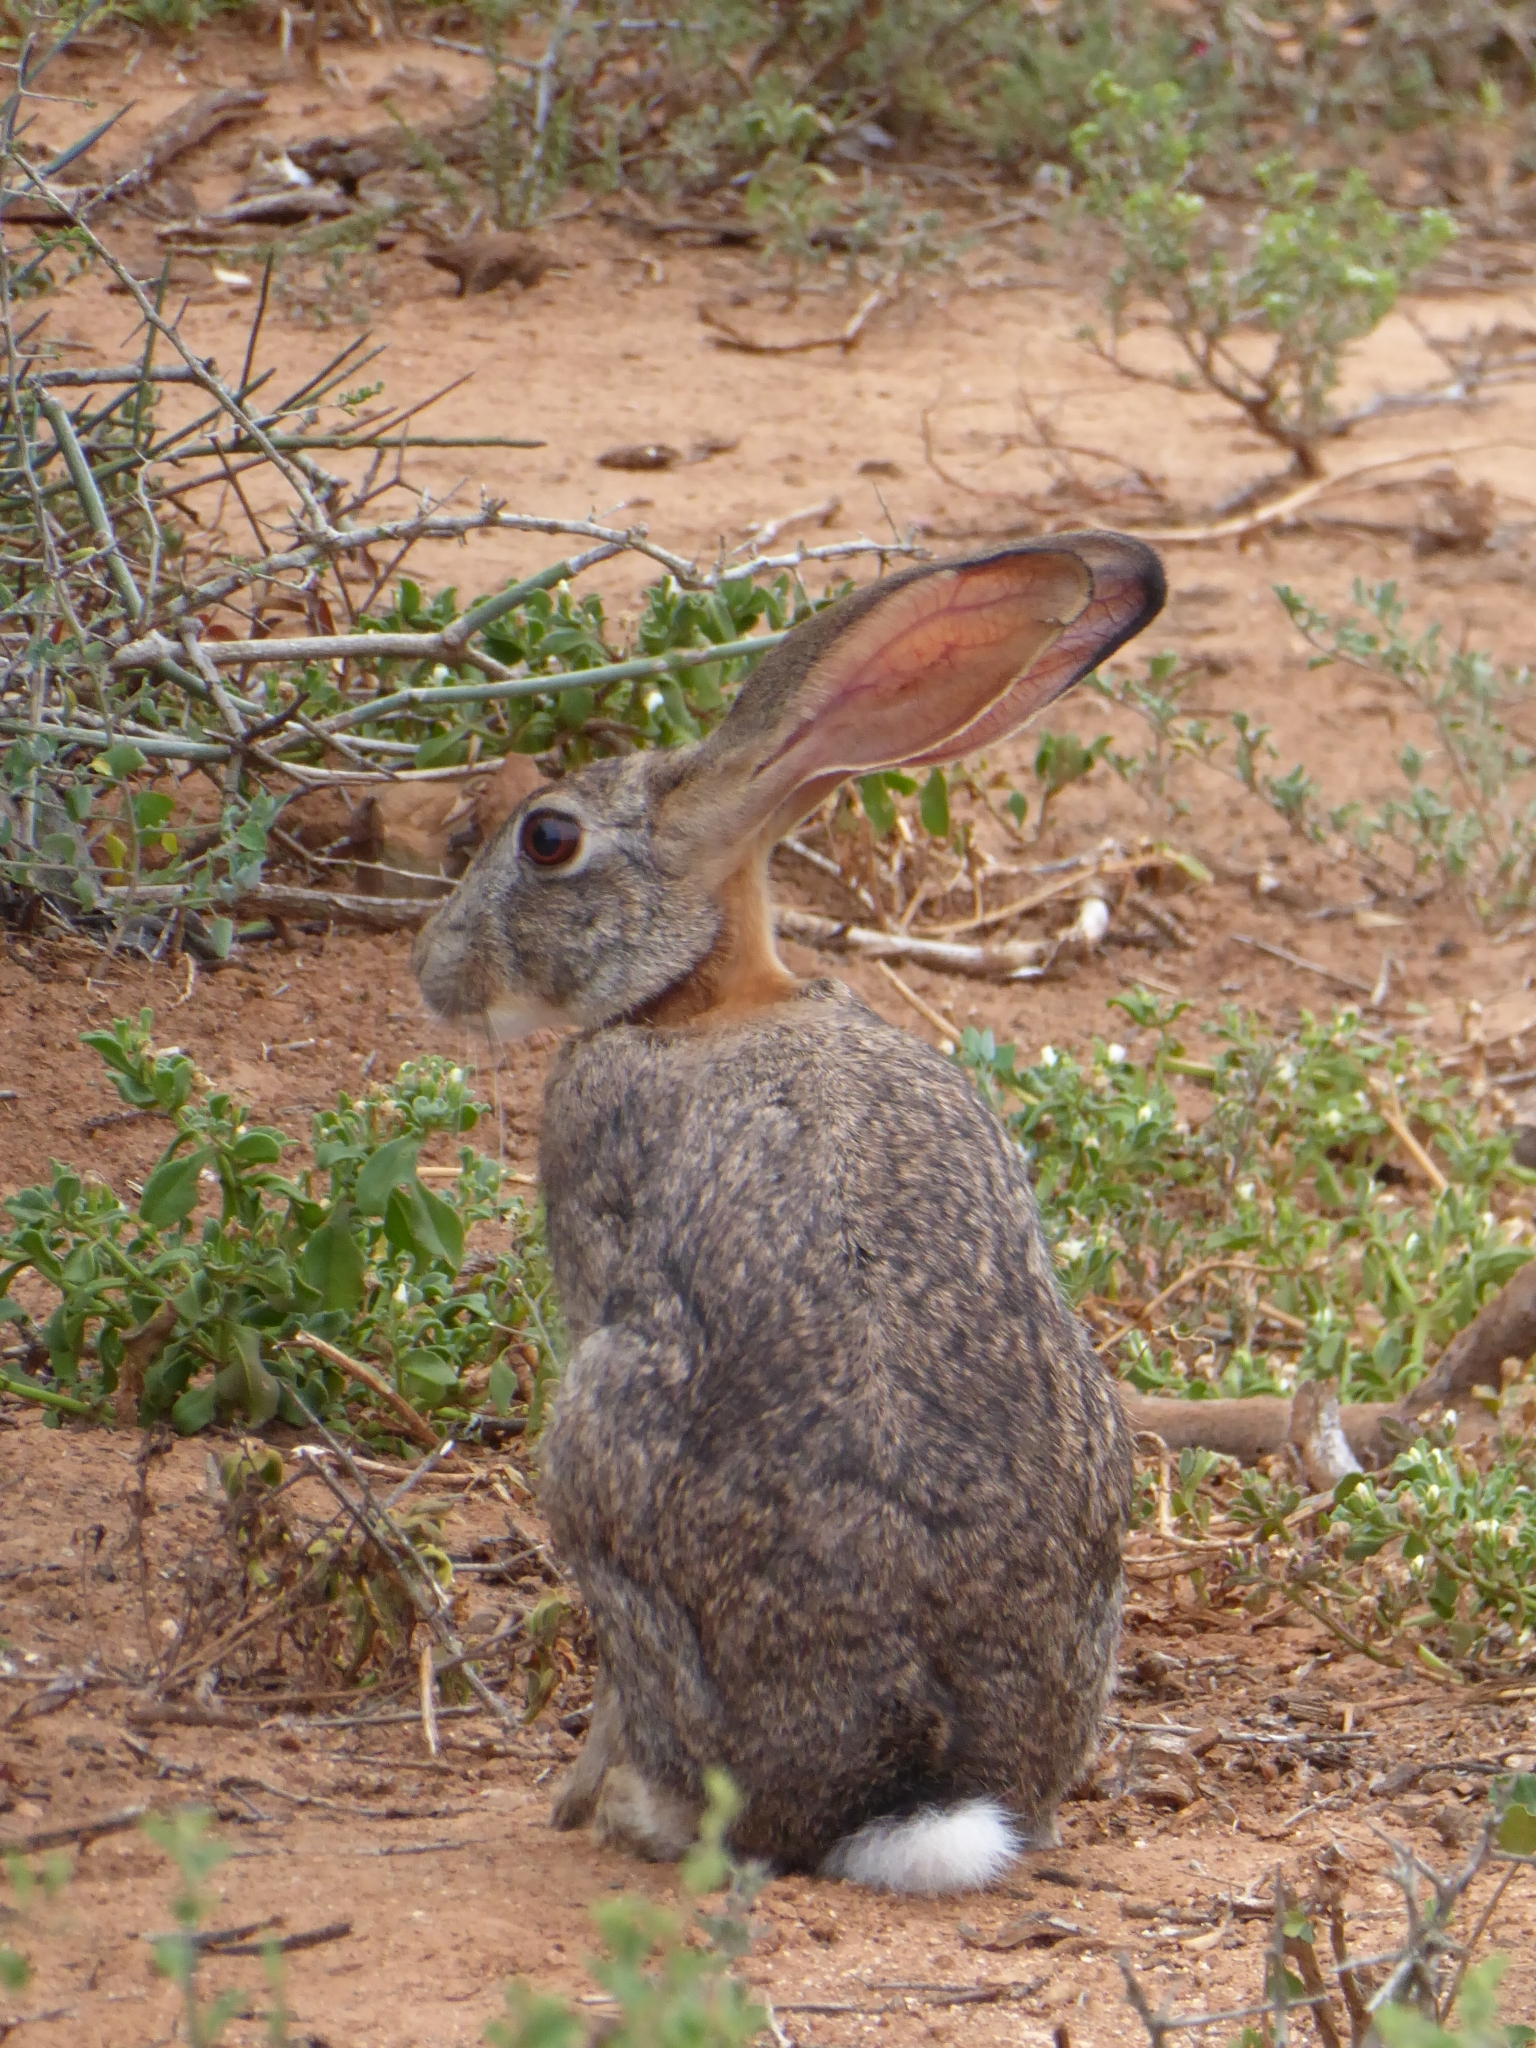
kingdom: Animalia
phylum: Chordata
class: Mammalia
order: Lagomorpha
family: Leporidae
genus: Lepus
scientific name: Lepus saxatilis
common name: Scrub hare
